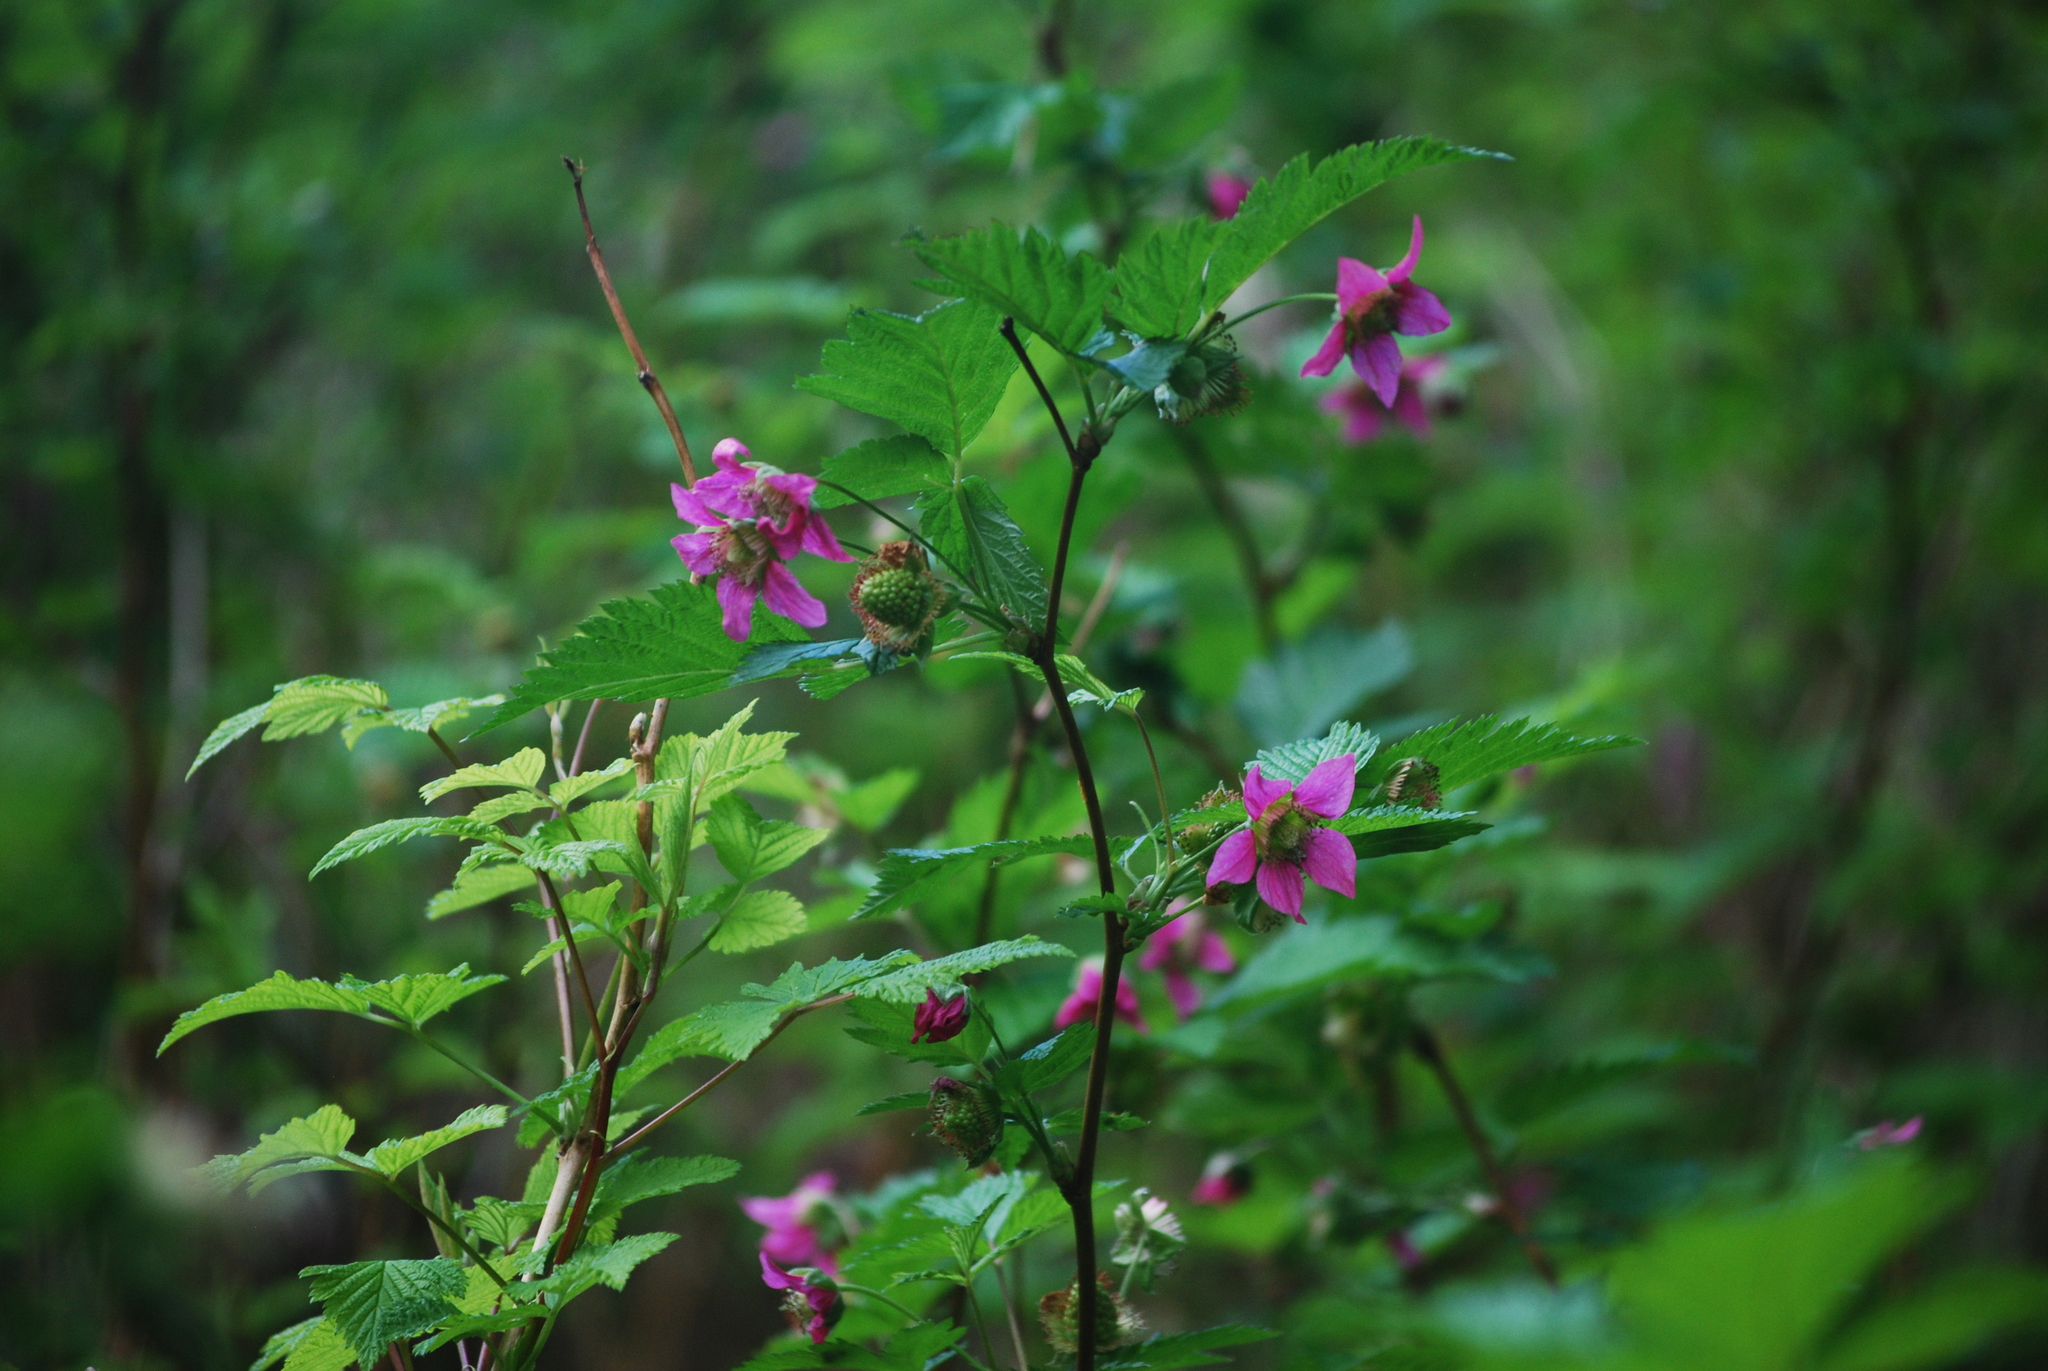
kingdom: Plantae
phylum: Tracheophyta
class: Magnoliopsida
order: Rosales
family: Rosaceae
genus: Rubus
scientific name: Rubus spectabilis
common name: Salmonberry
